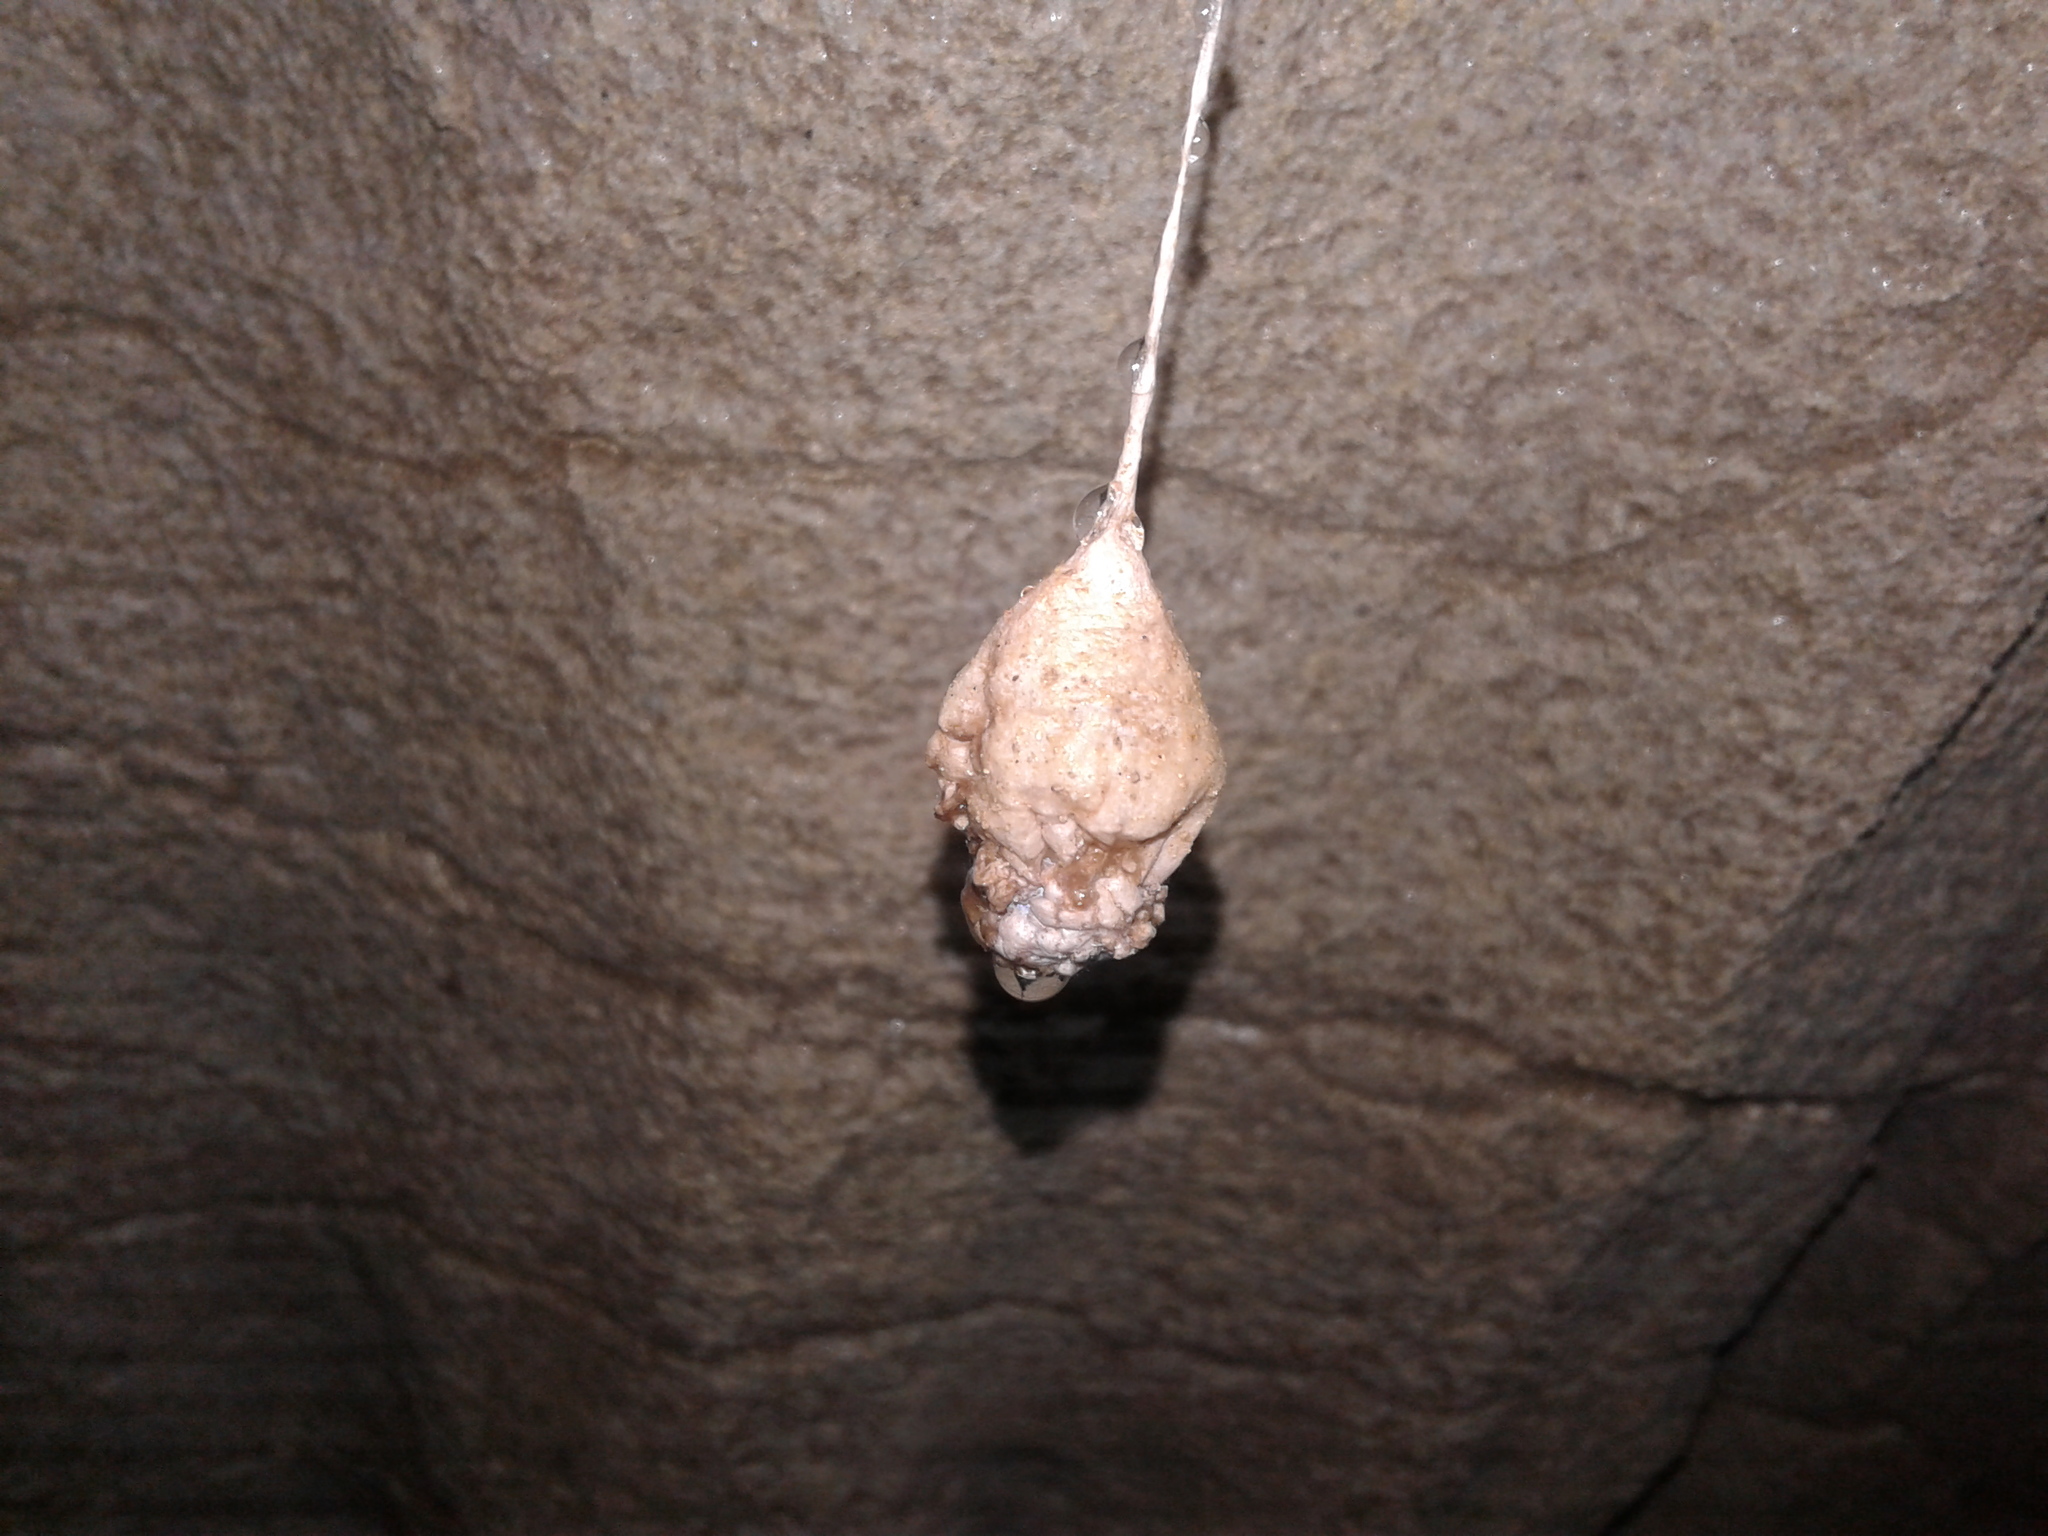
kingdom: Animalia
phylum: Arthropoda
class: Arachnida
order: Araneae
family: Gradungulidae
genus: Spelungula
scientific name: Spelungula cavernicola
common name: Nelson cave spider
